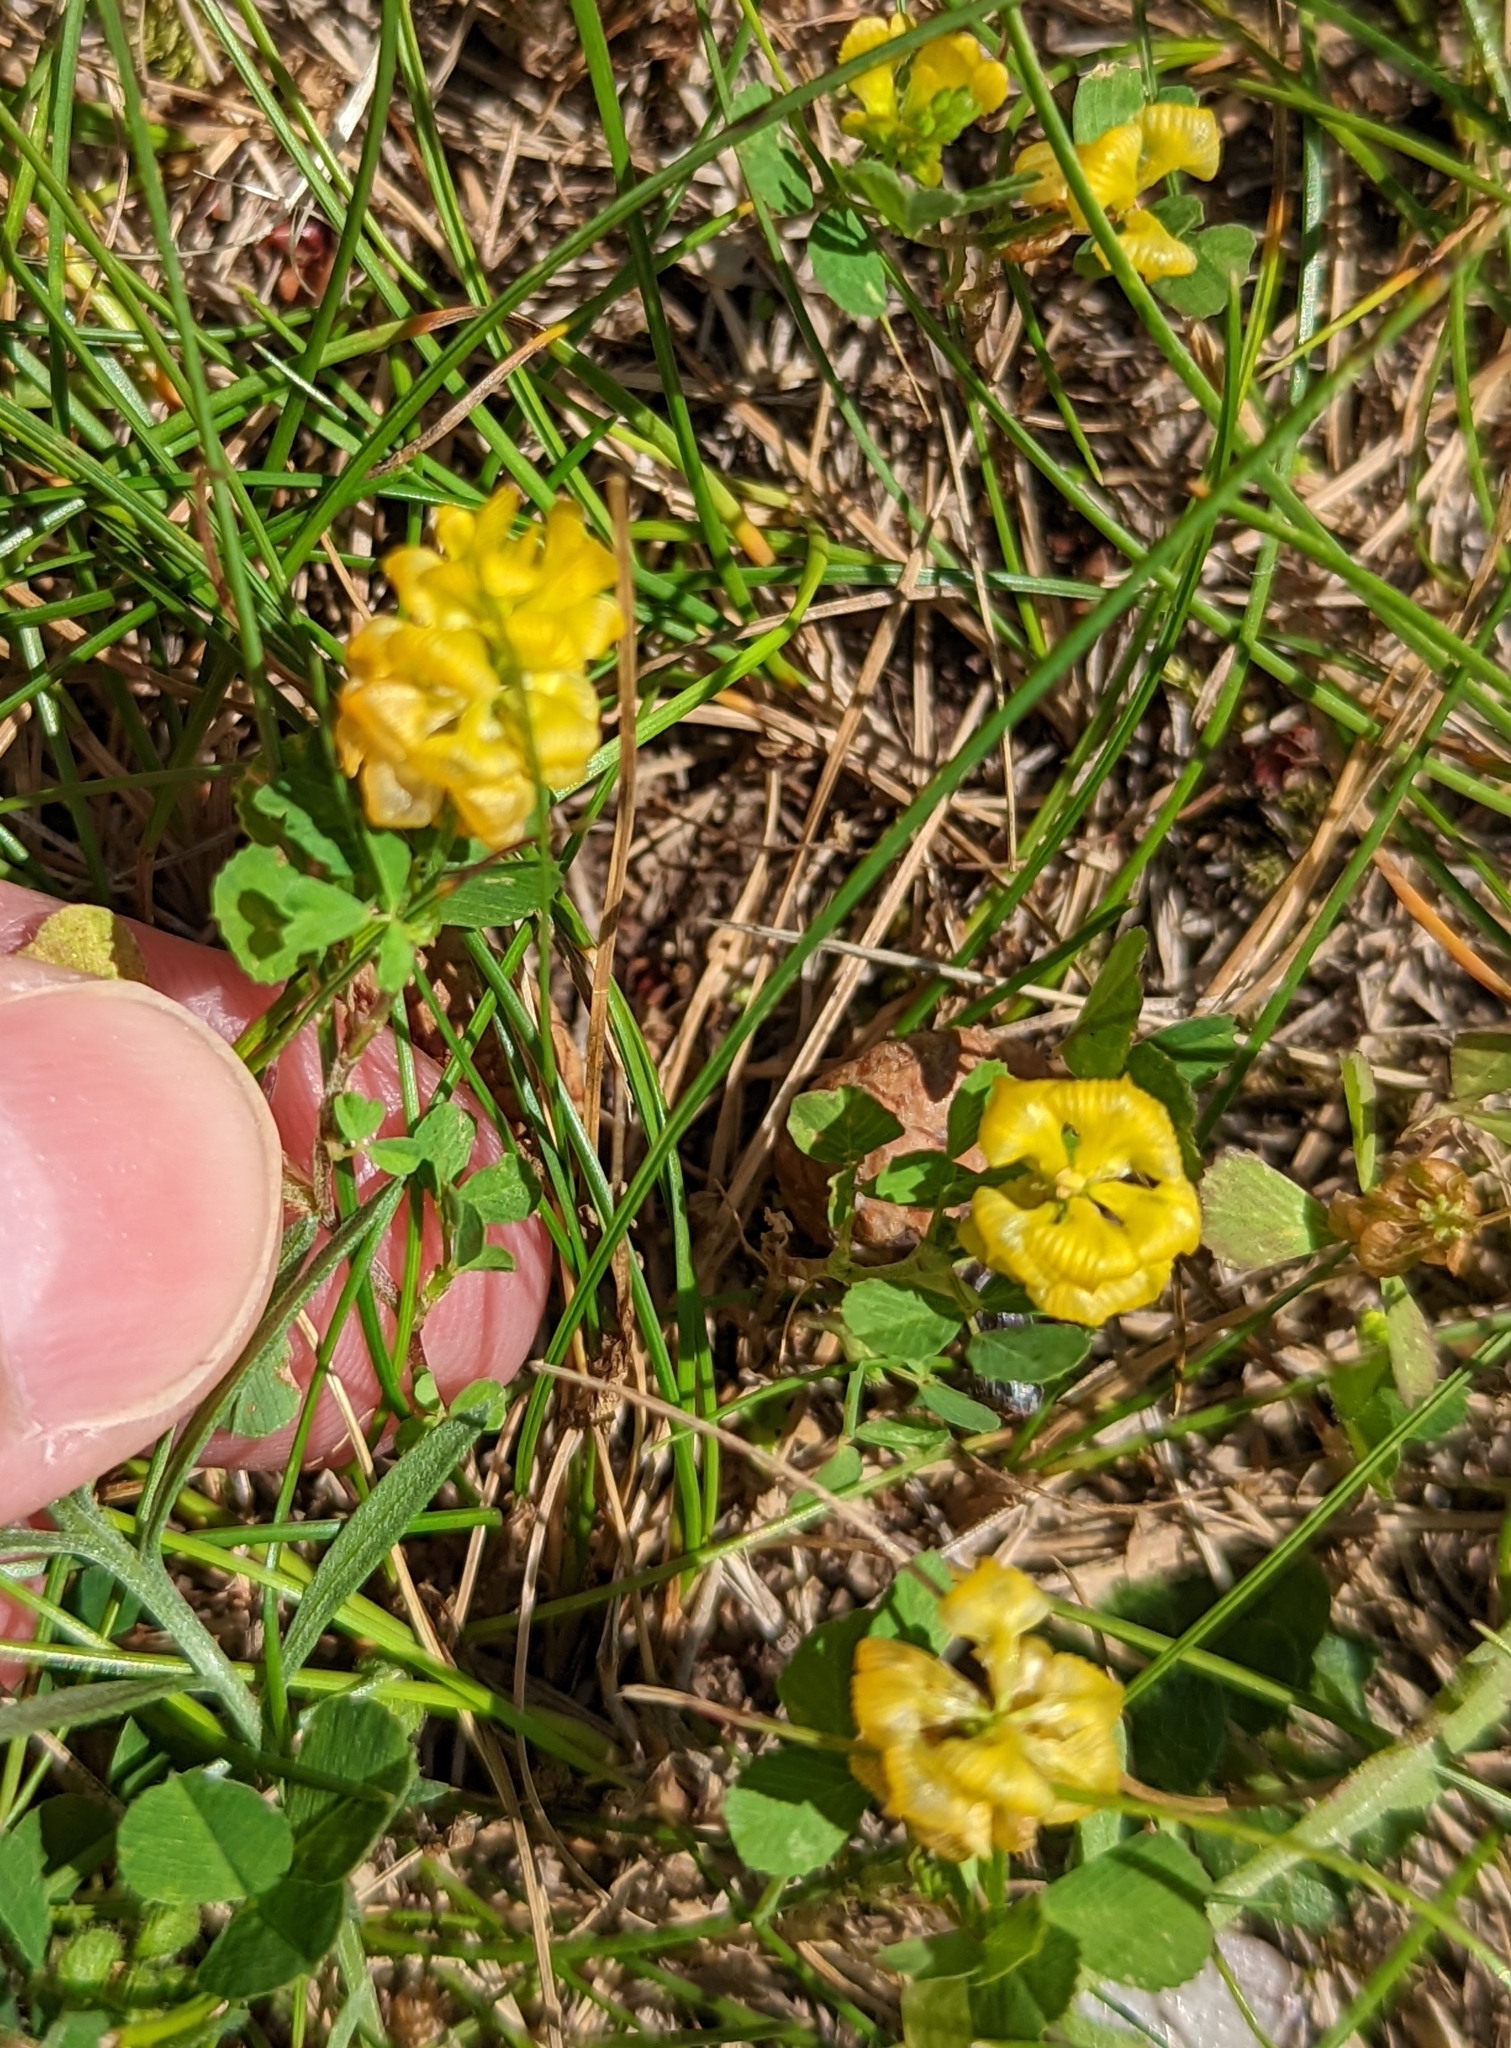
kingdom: Plantae
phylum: Tracheophyta
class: Magnoliopsida
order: Fabales
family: Fabaceae
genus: Trifolium
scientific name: Trifolium aureum
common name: Golden clover
